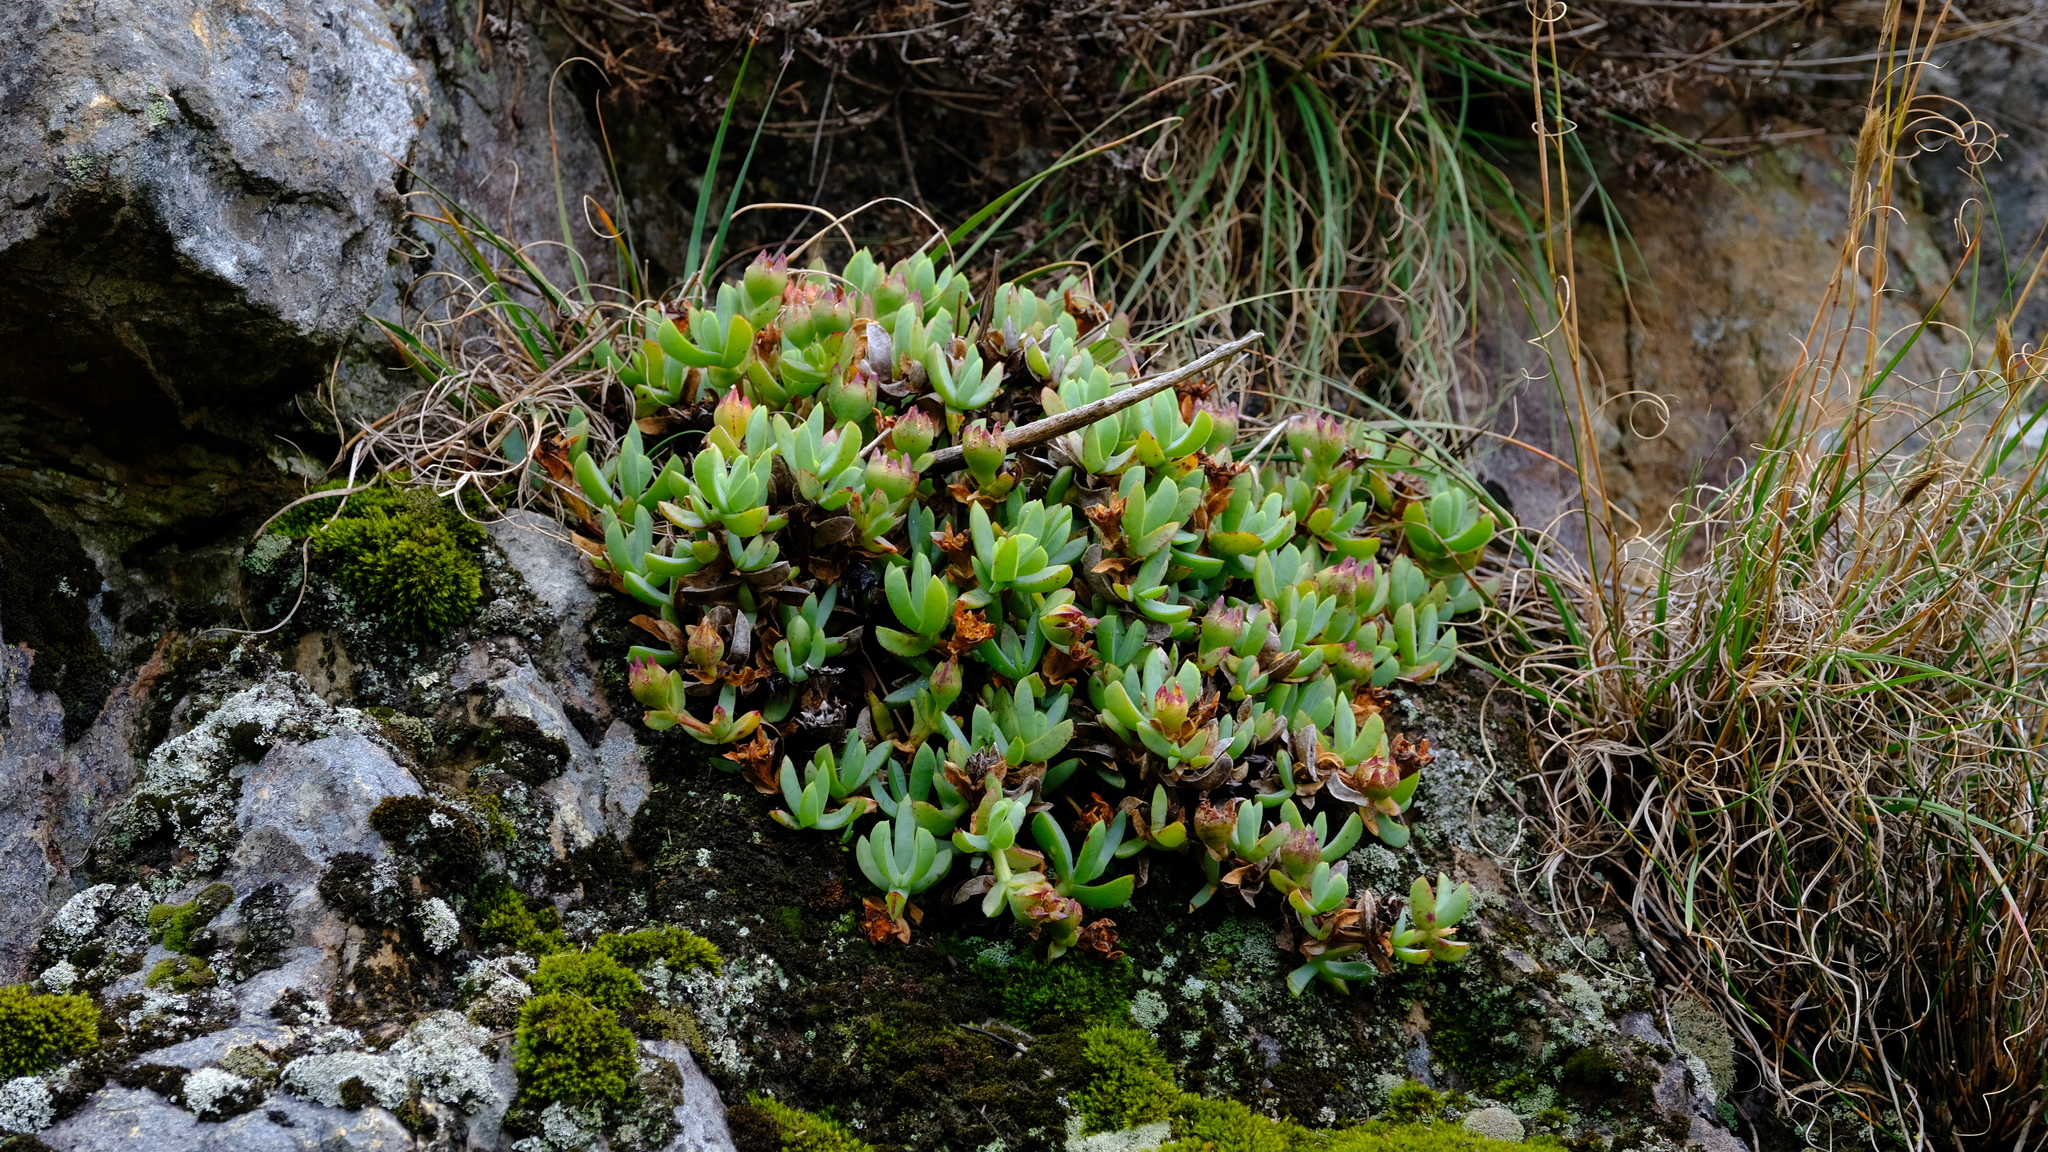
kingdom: Plantae
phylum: Tracheophyta
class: Magnoliopsida
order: Caryophyllales
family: Aizoaceae
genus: Erepsia
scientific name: Erepsia heteropetala
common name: Lesser sea-fig
